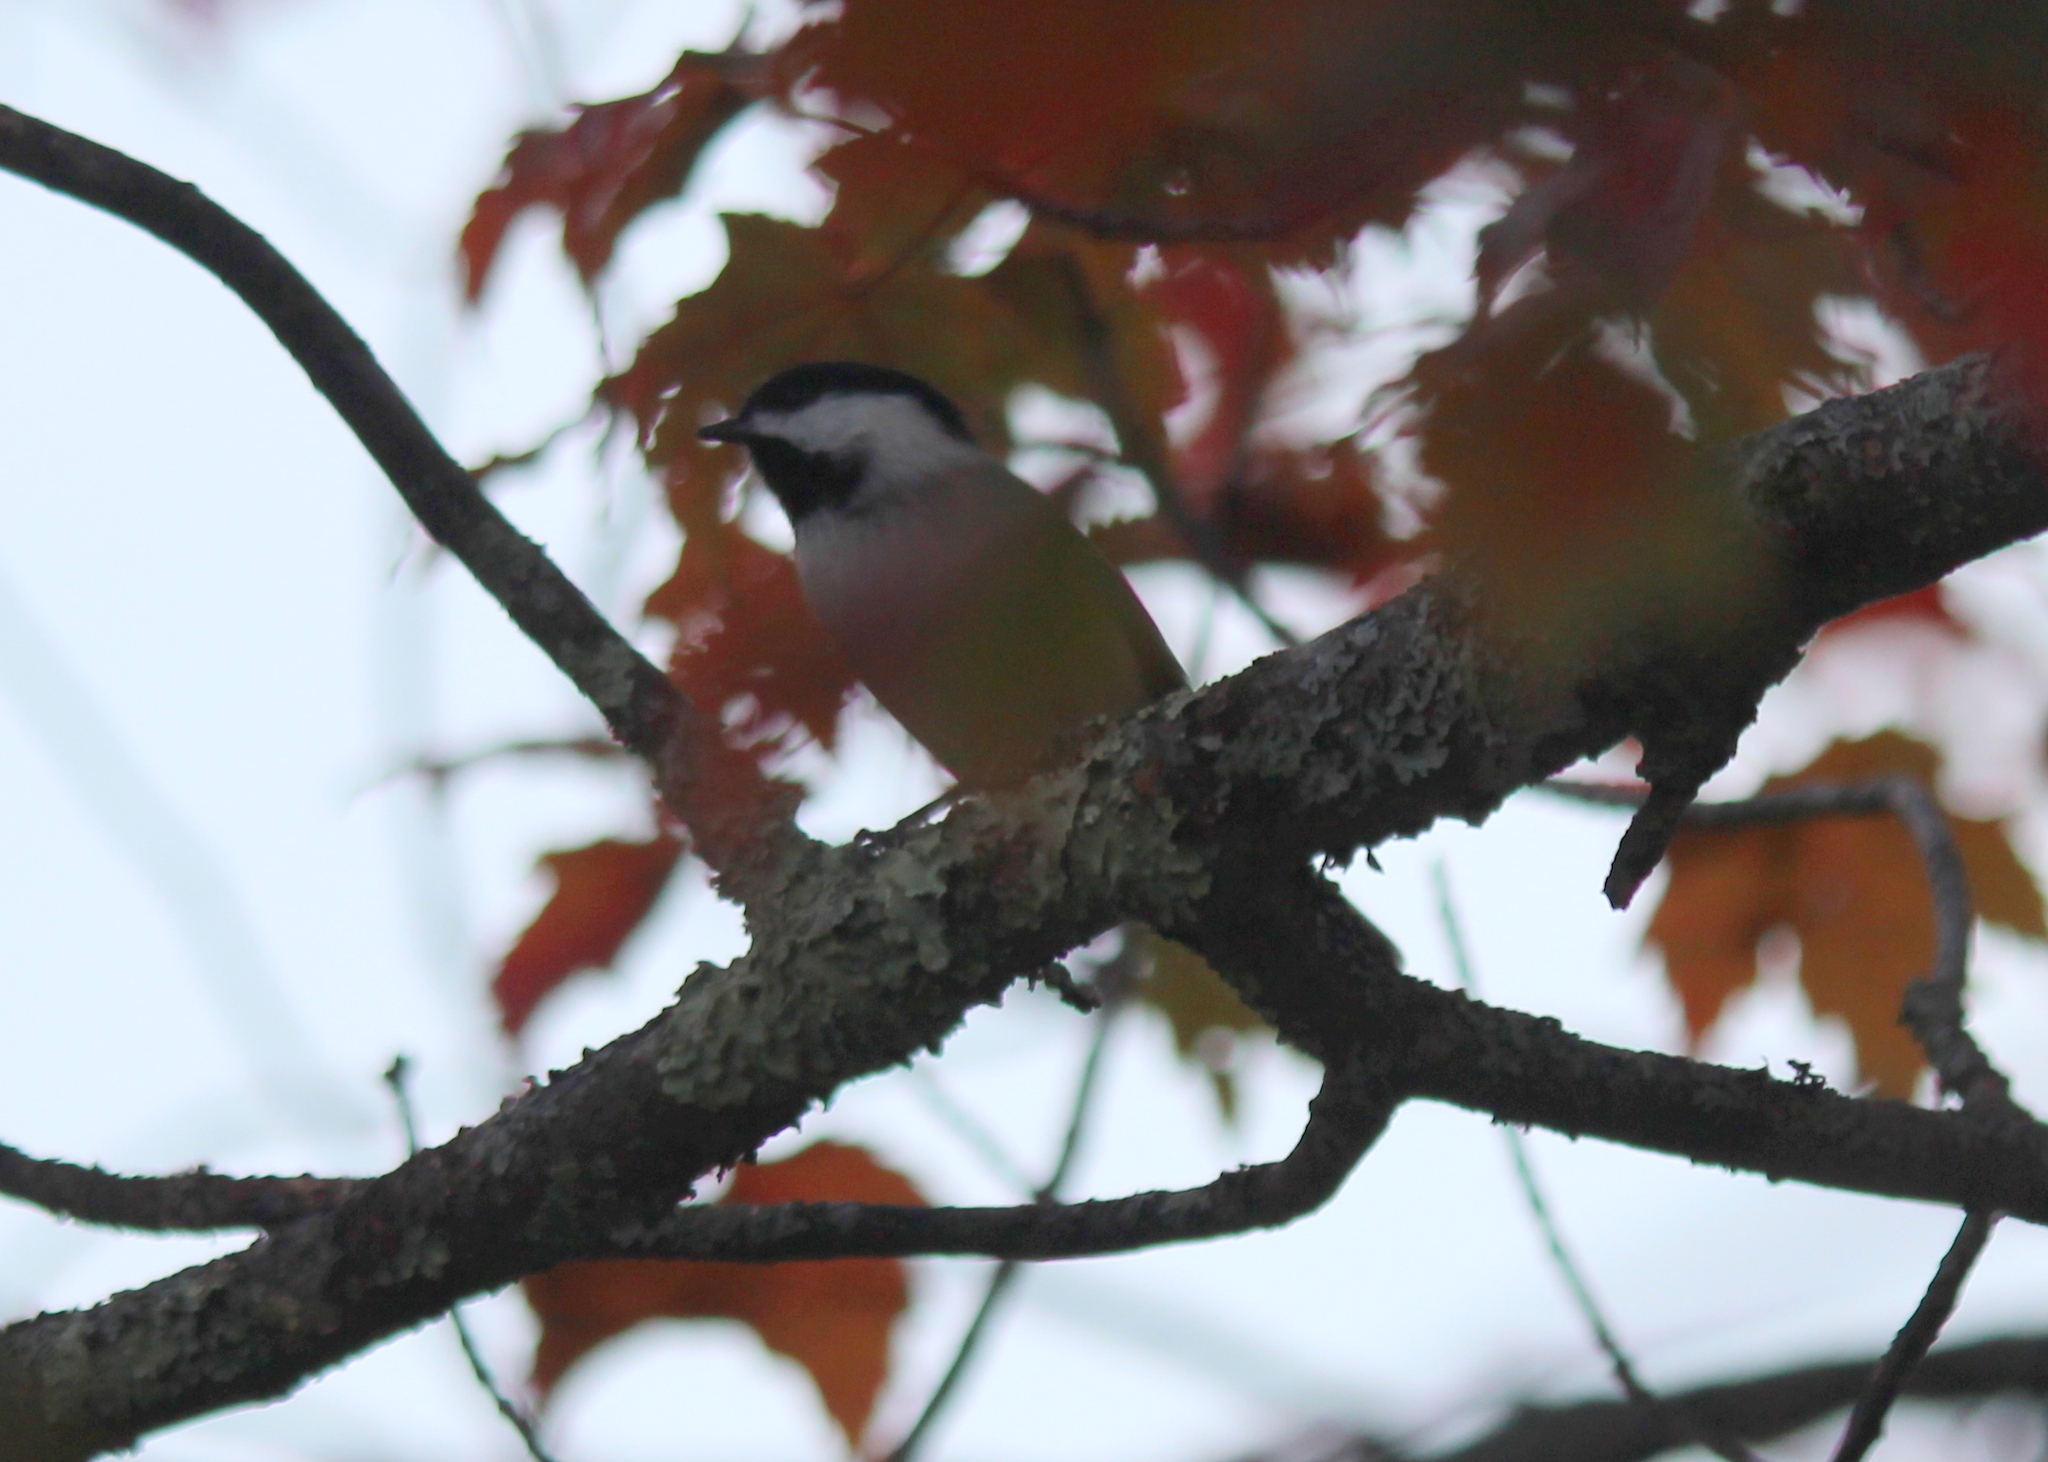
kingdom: Animalia
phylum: Chordata
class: Aves
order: Passeriformes
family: Paridae
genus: Poecile
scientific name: Poecile atricapillus
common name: Black-capped chickadee
